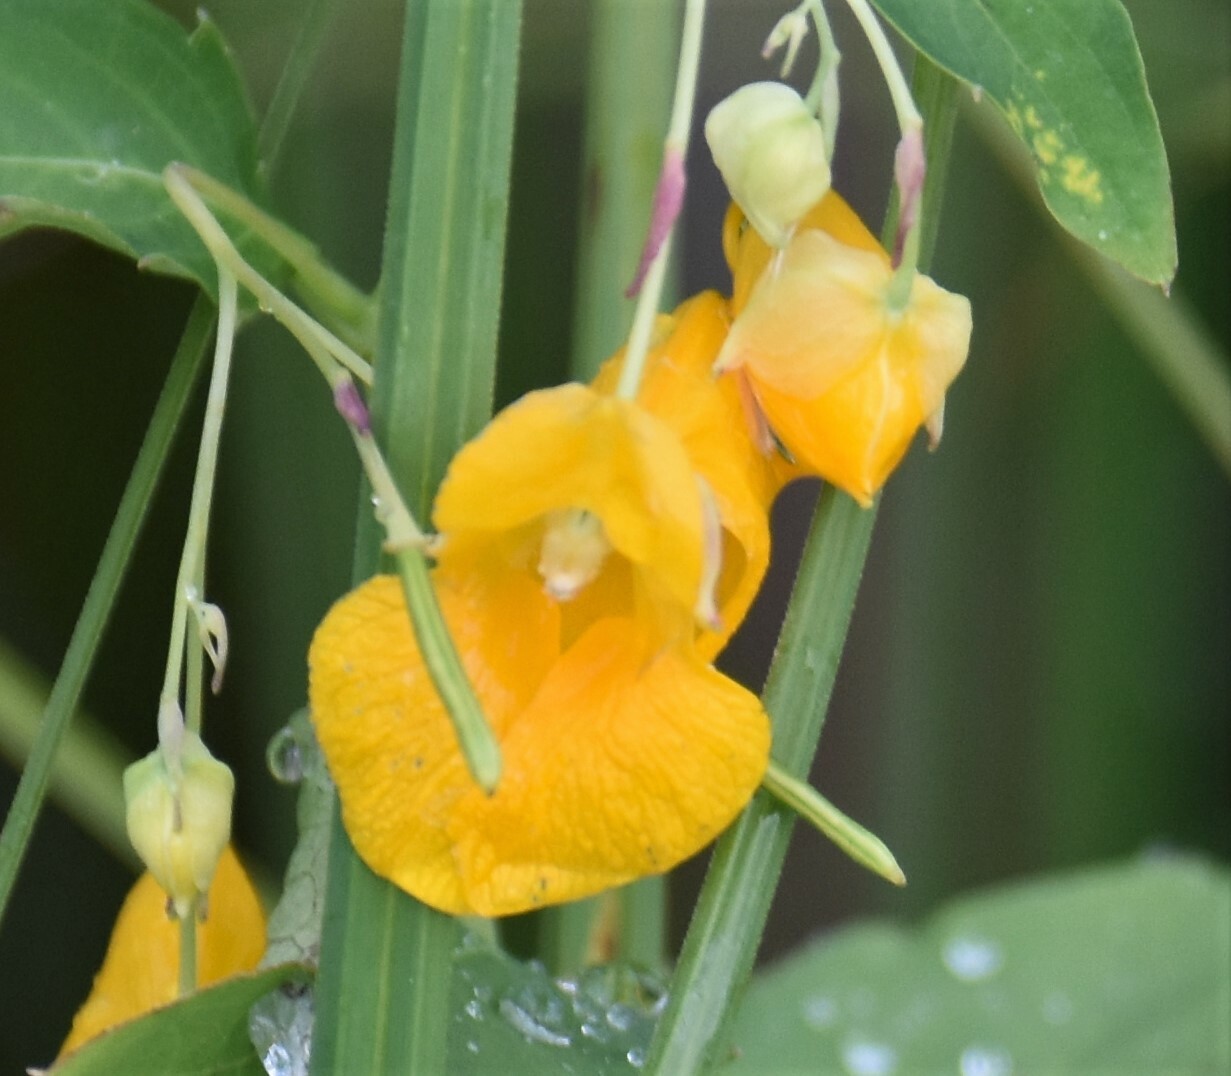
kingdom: Plantae
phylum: Tracheophyta
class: Magnoliopsida
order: Ericales
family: Balsaminaceae
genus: Impatiens
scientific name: Impatiens capensis
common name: Orange balsam
